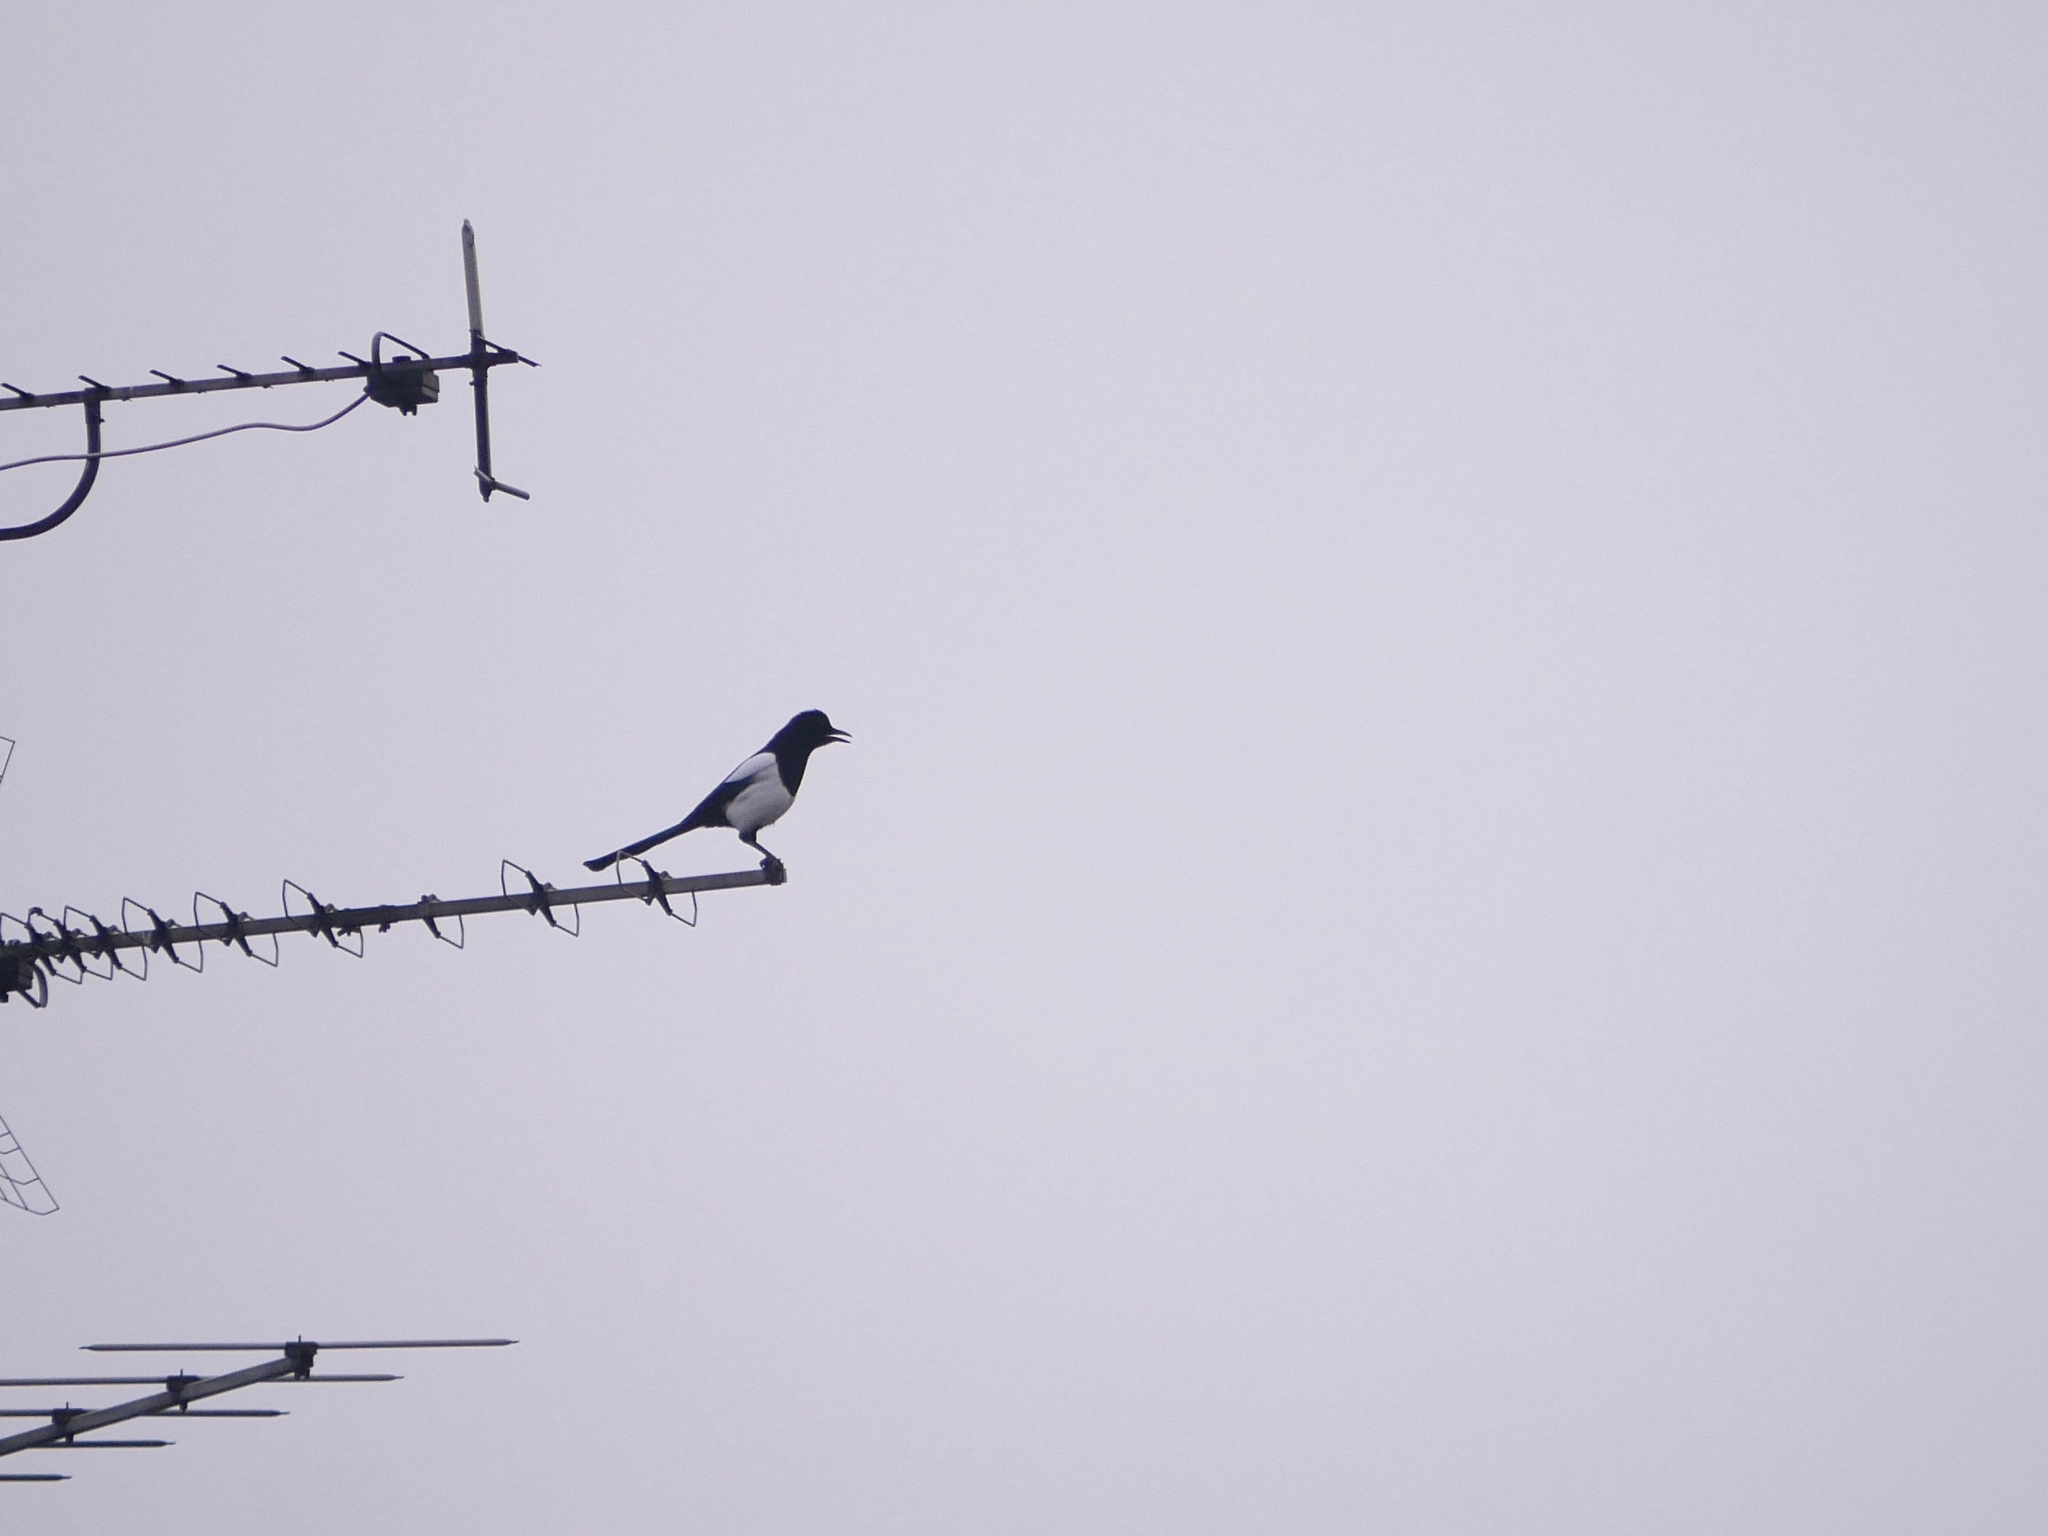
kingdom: Animalia
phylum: Chordata
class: Aves
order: Passeriformes
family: Corvidae
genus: Pica
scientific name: Pica pica
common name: Eurasian magpie
